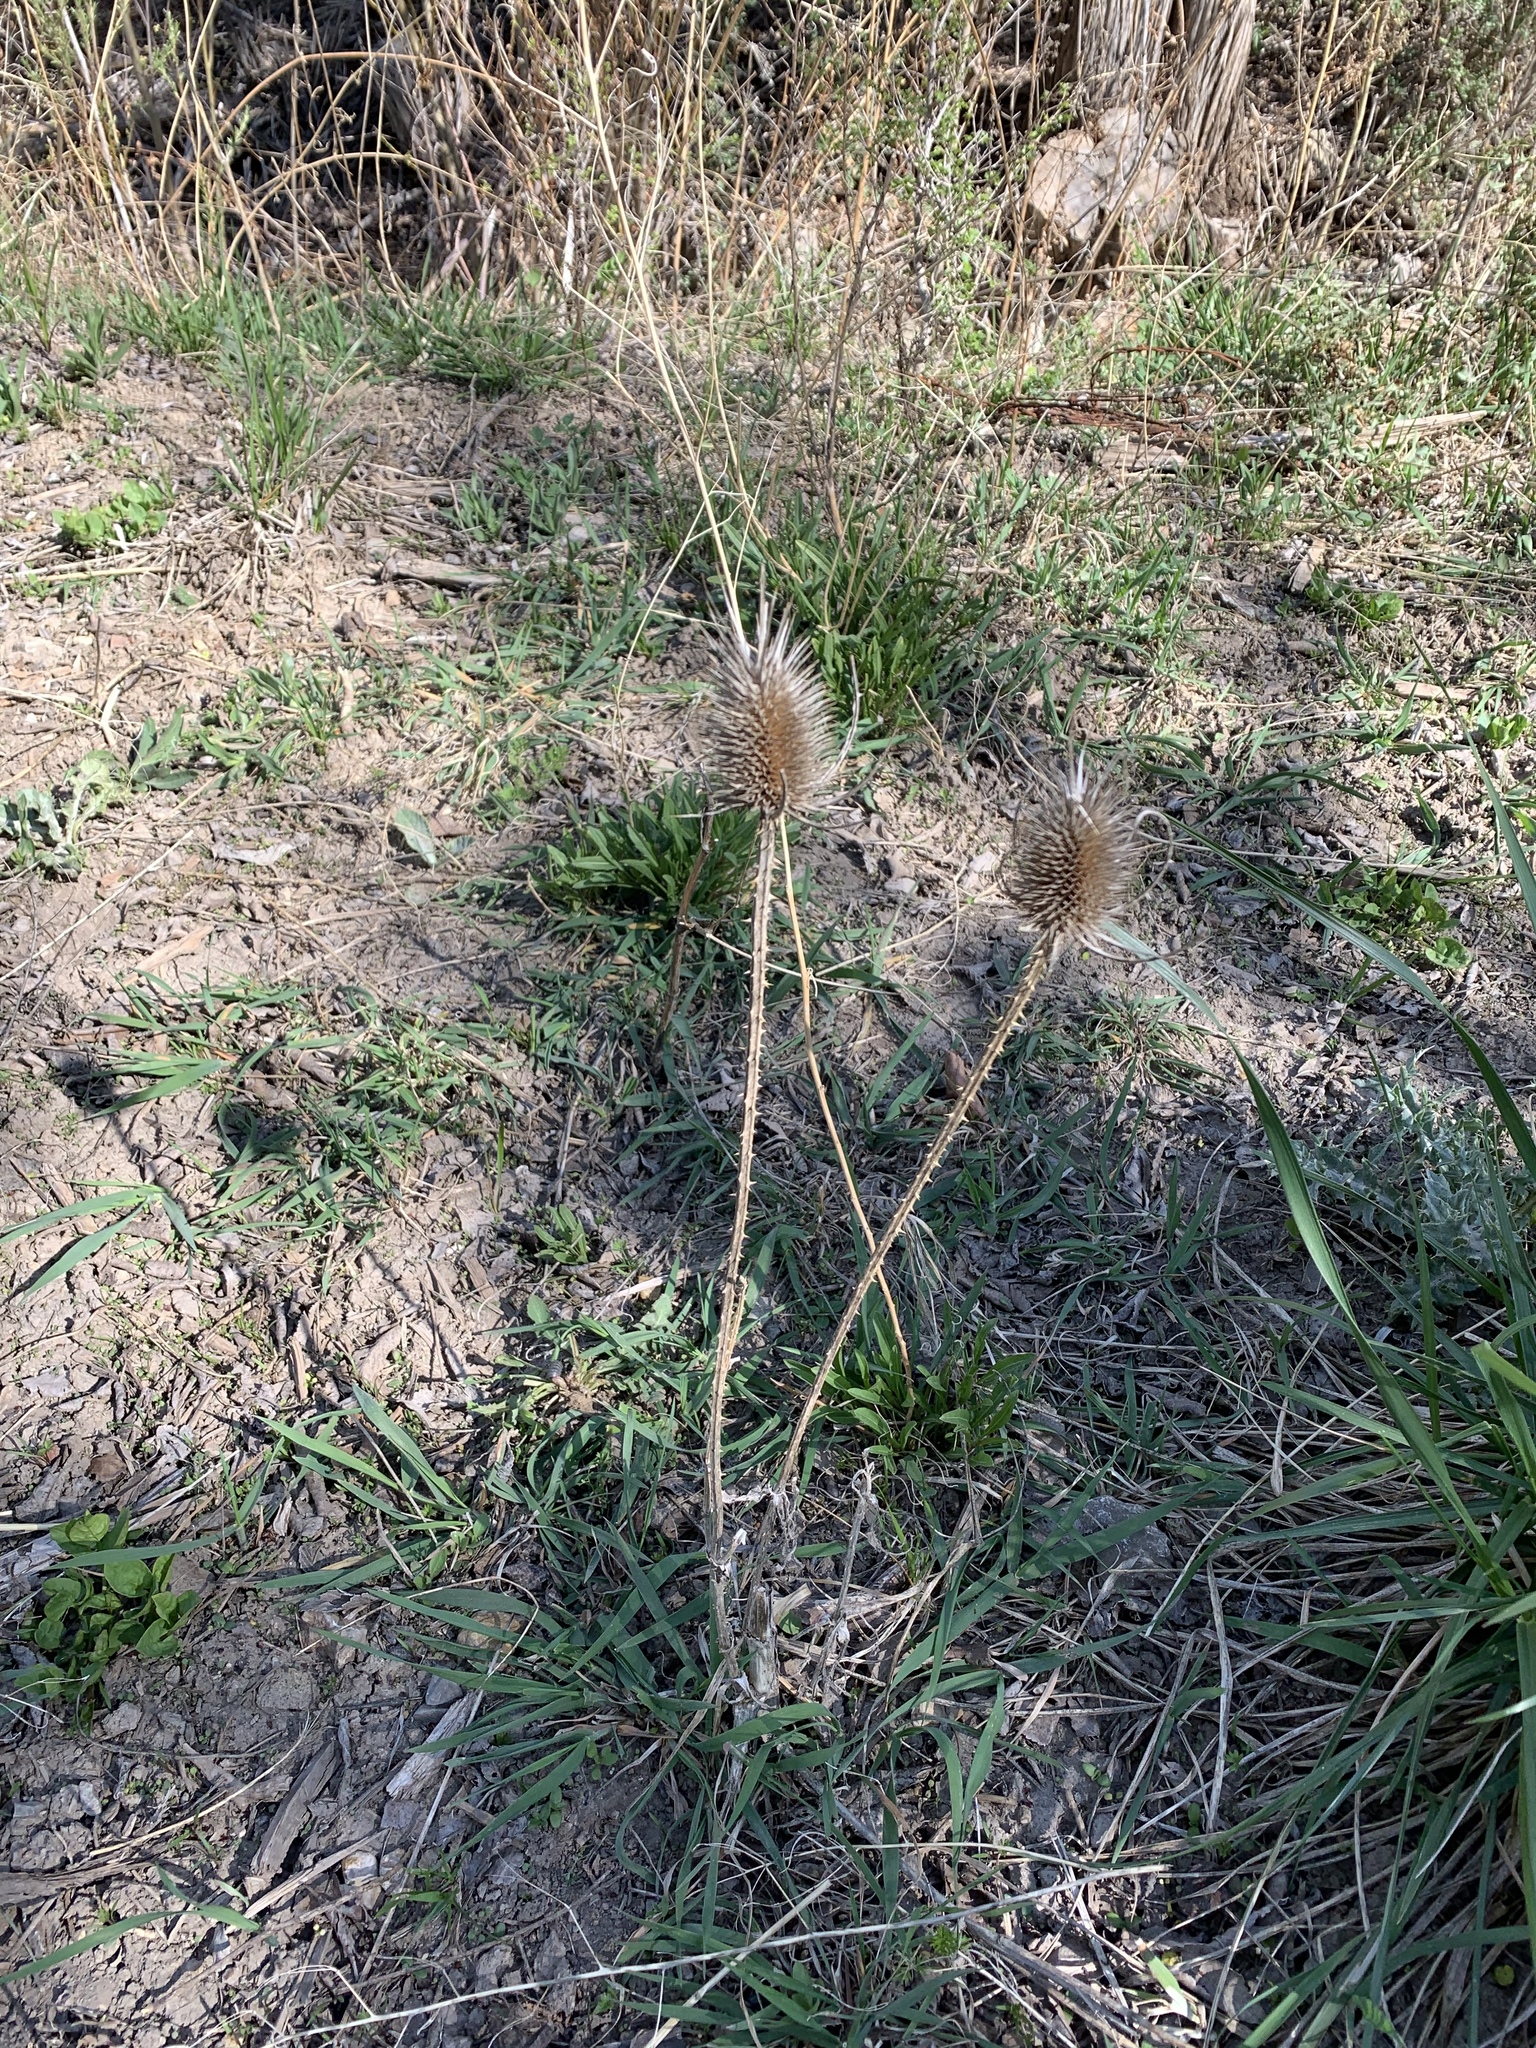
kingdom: Plantae
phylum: Tracheophyta
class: Magnoliopsida
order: Dipsacales
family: Caprifoliaceae
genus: Dipsacus
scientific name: Dipsacus fullonum
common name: Teasel
